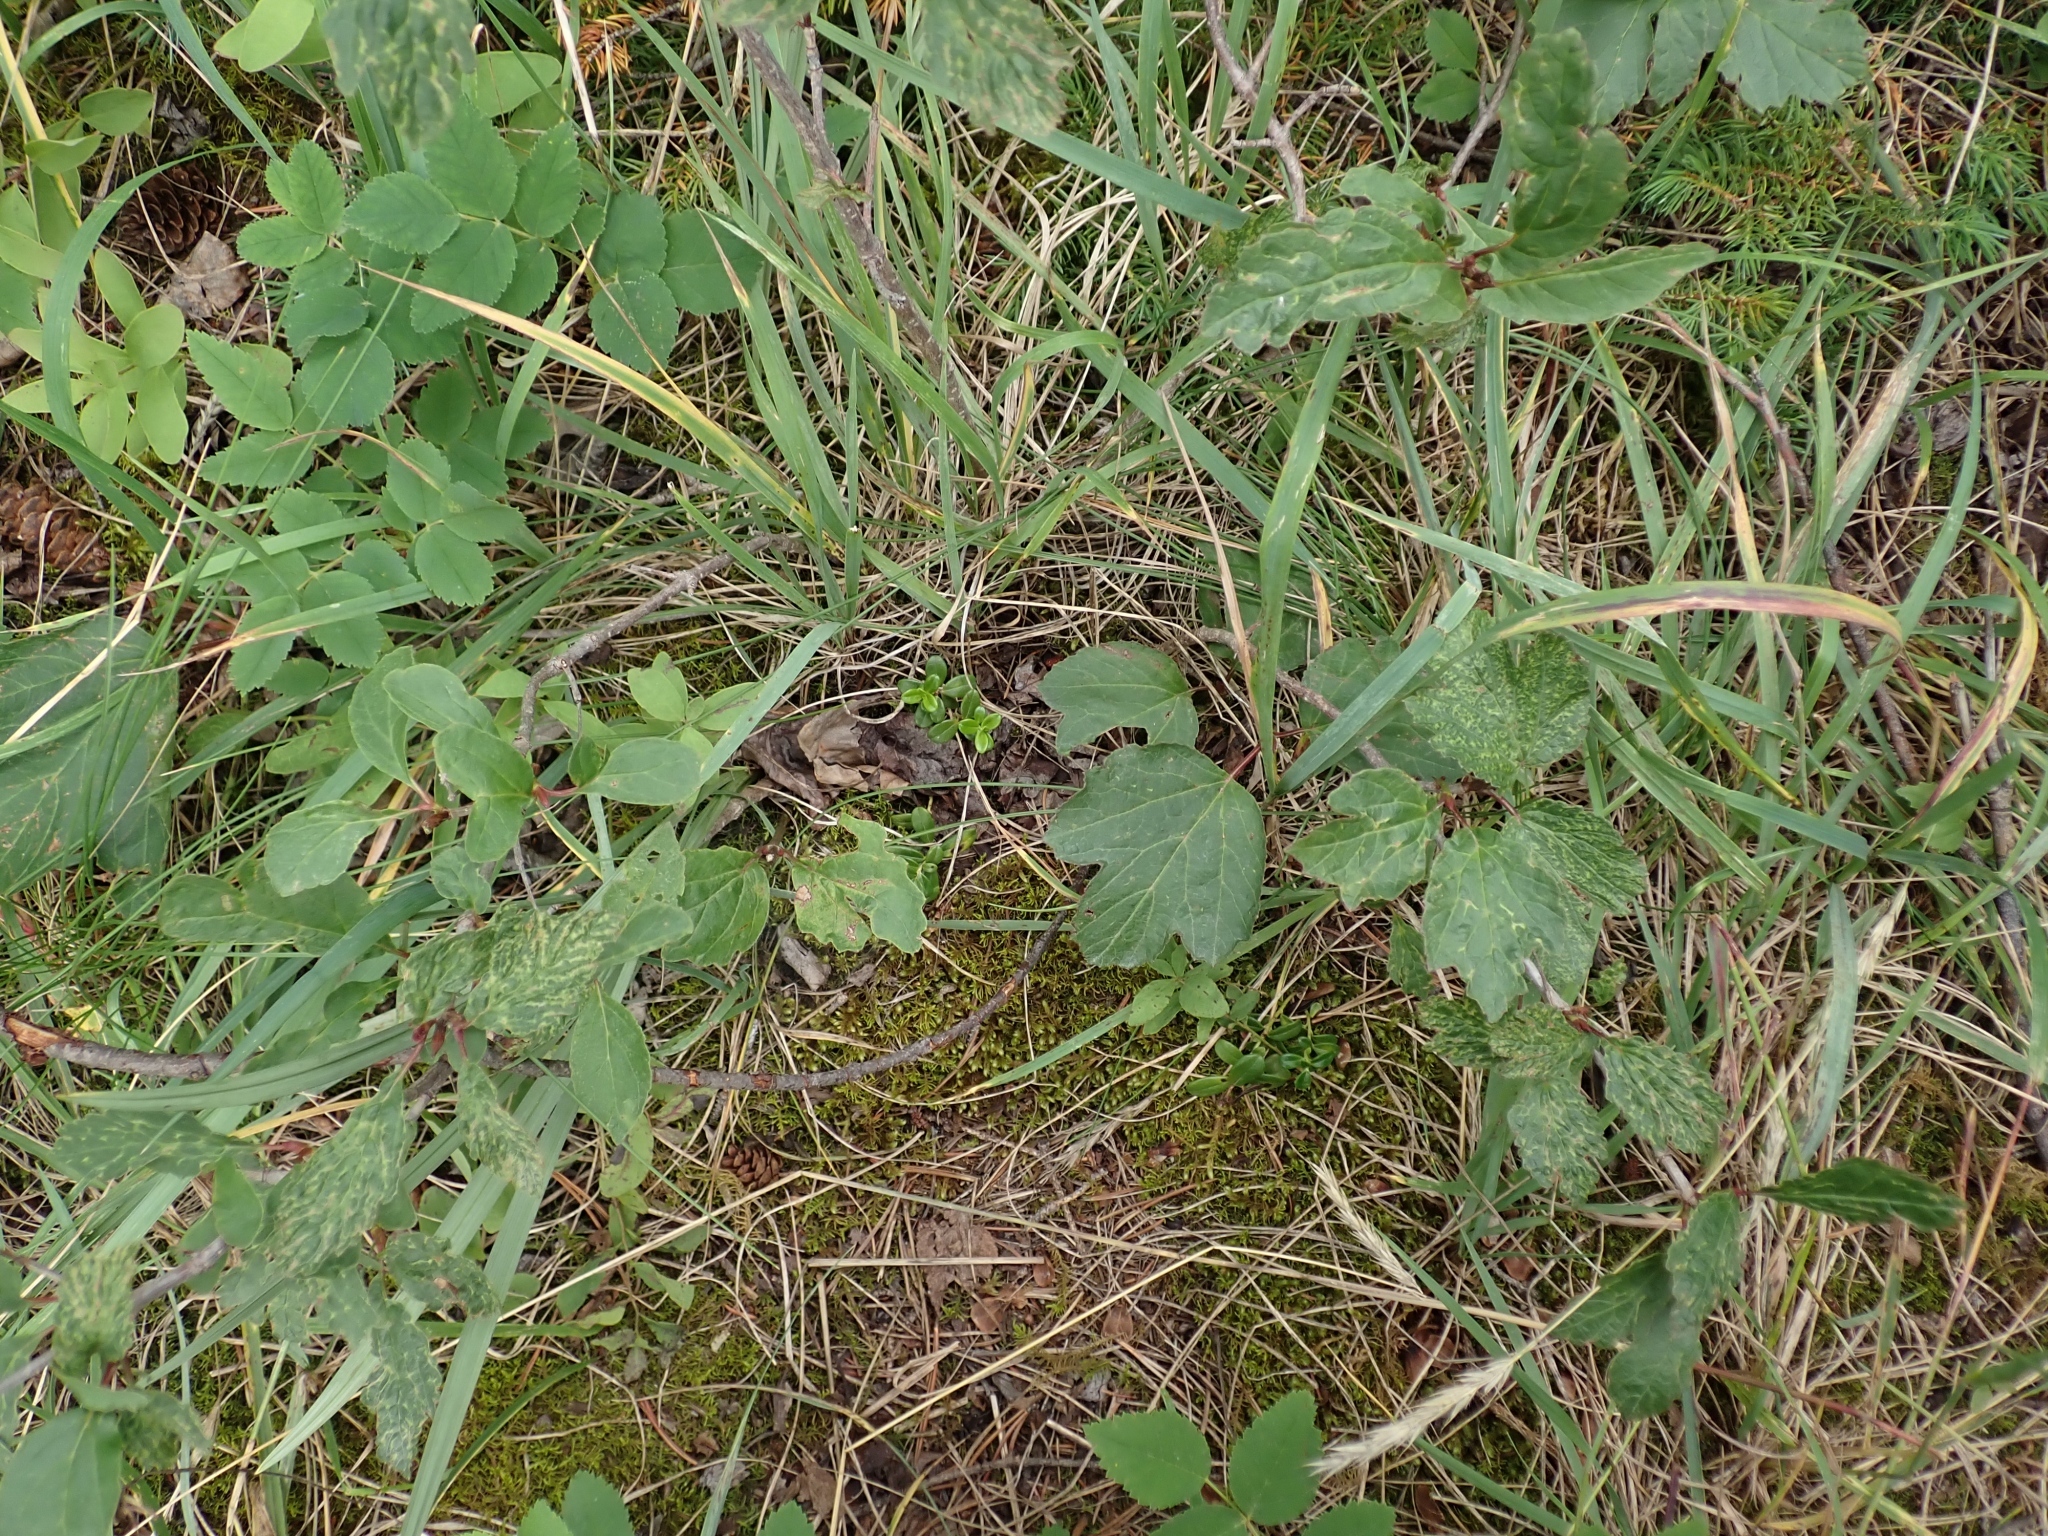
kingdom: Plantae
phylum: Tracheophyta
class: Magnoliopsida
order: Ericales
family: Ericaceae
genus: Vaccinium
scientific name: Vaccinium vitis-idaea
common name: Cowberry
